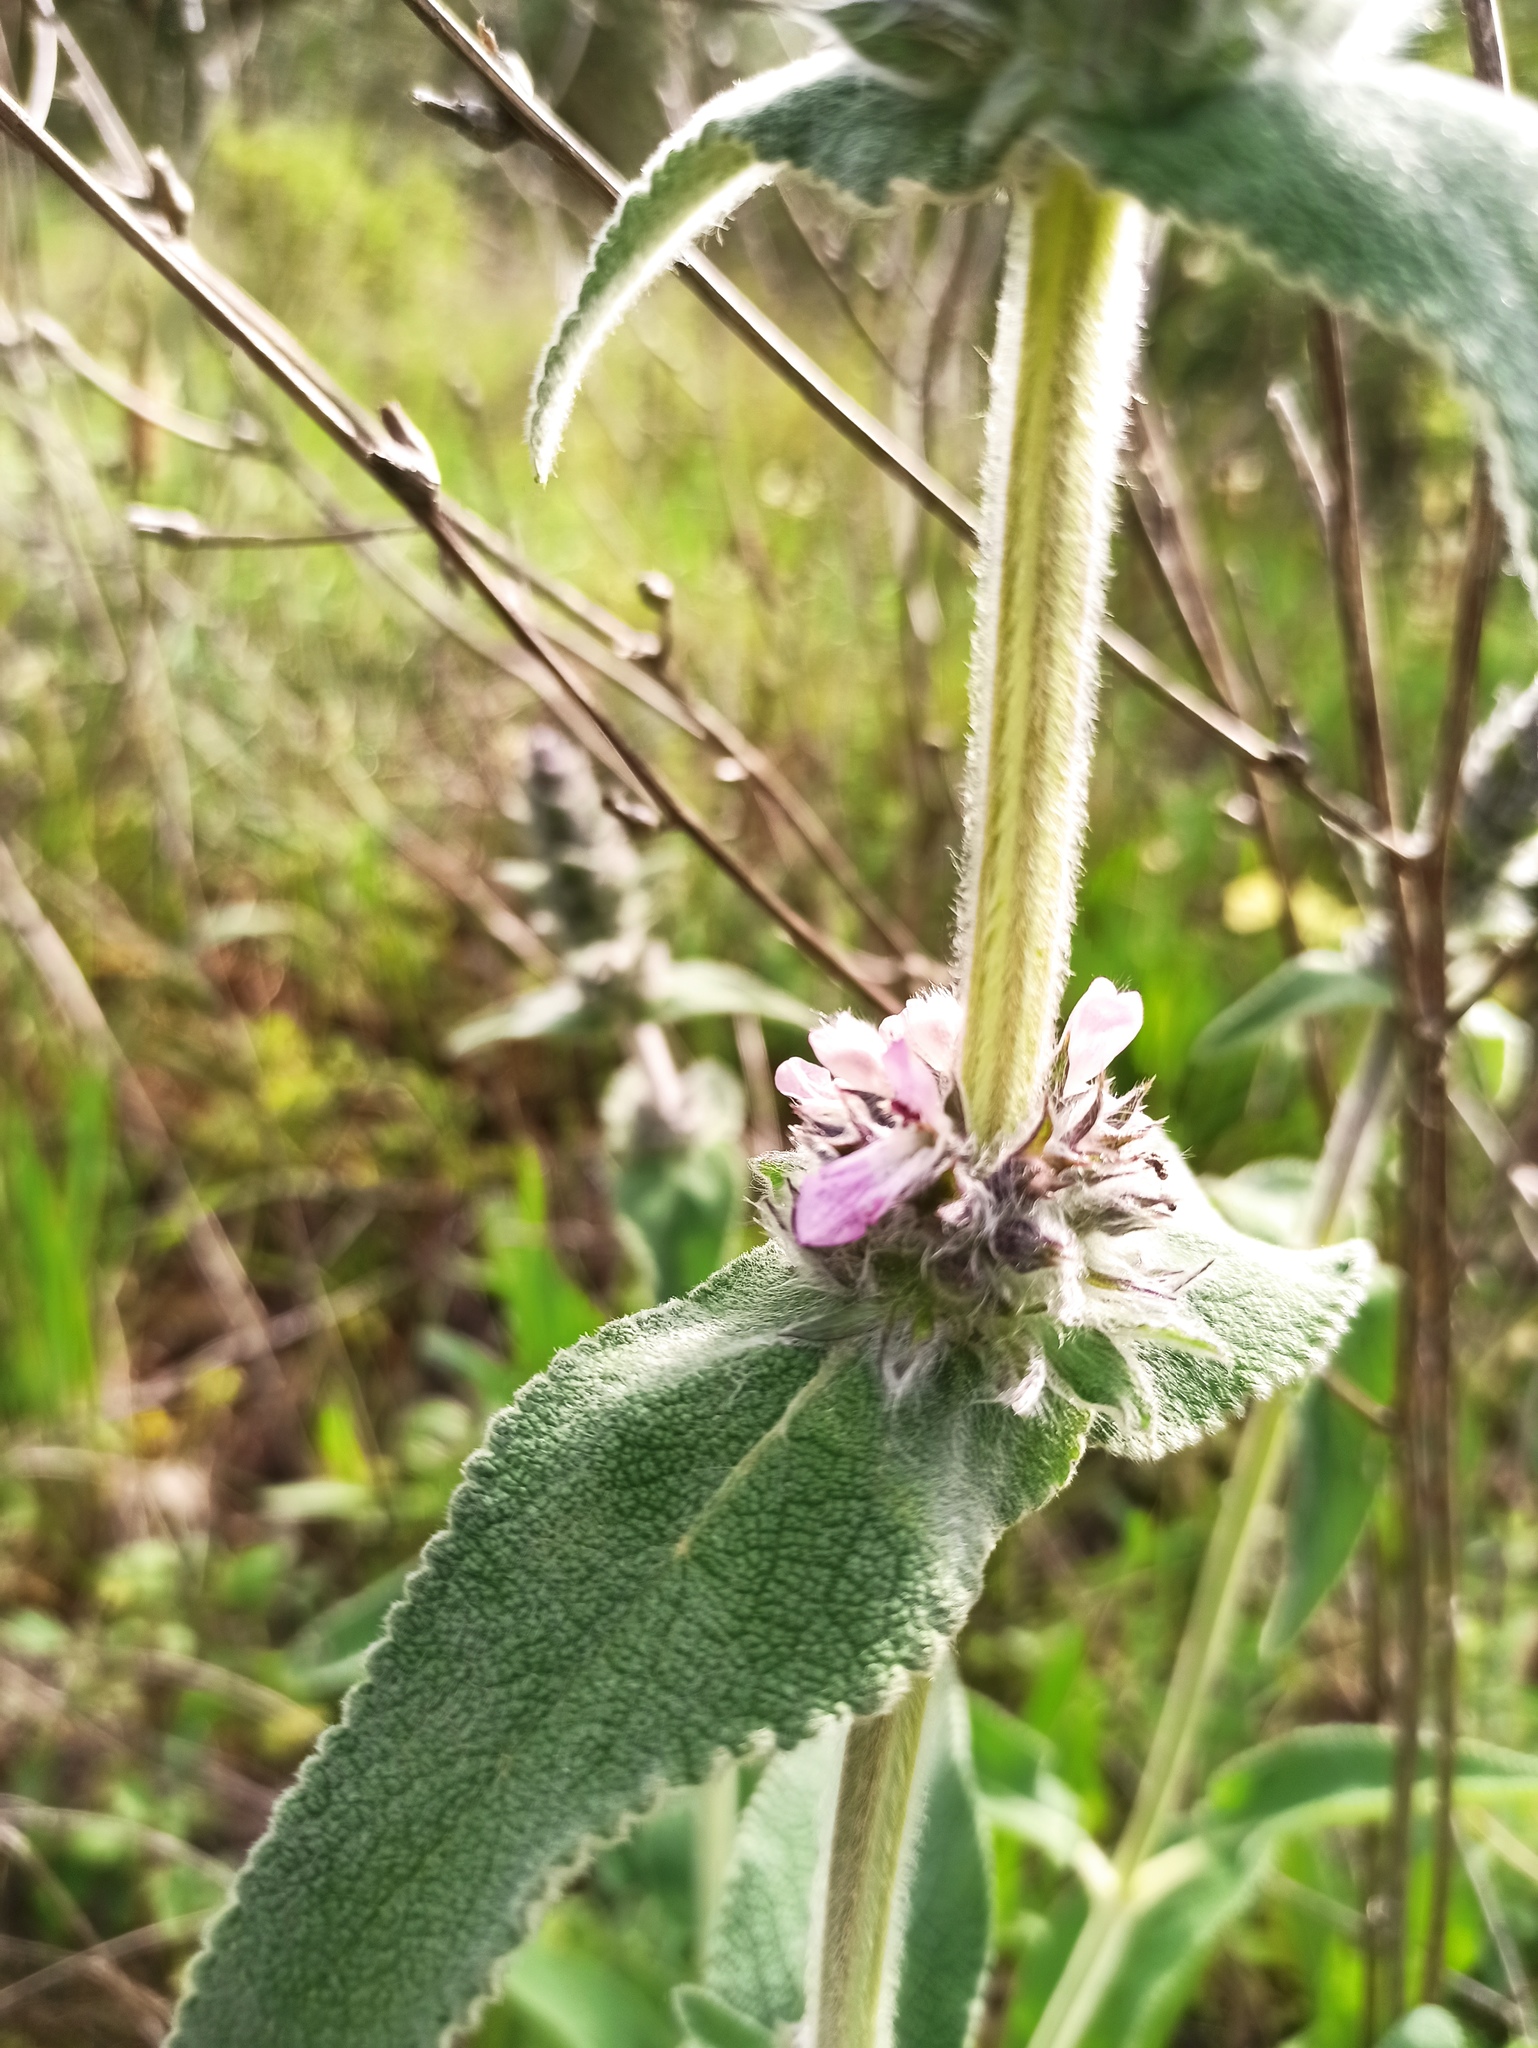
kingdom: Plantae
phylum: Tracheophyta
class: Magnoliopsida
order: Lamiales
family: Lamiaceae
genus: Stachys
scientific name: Stachys germanica
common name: Downy woundwort
